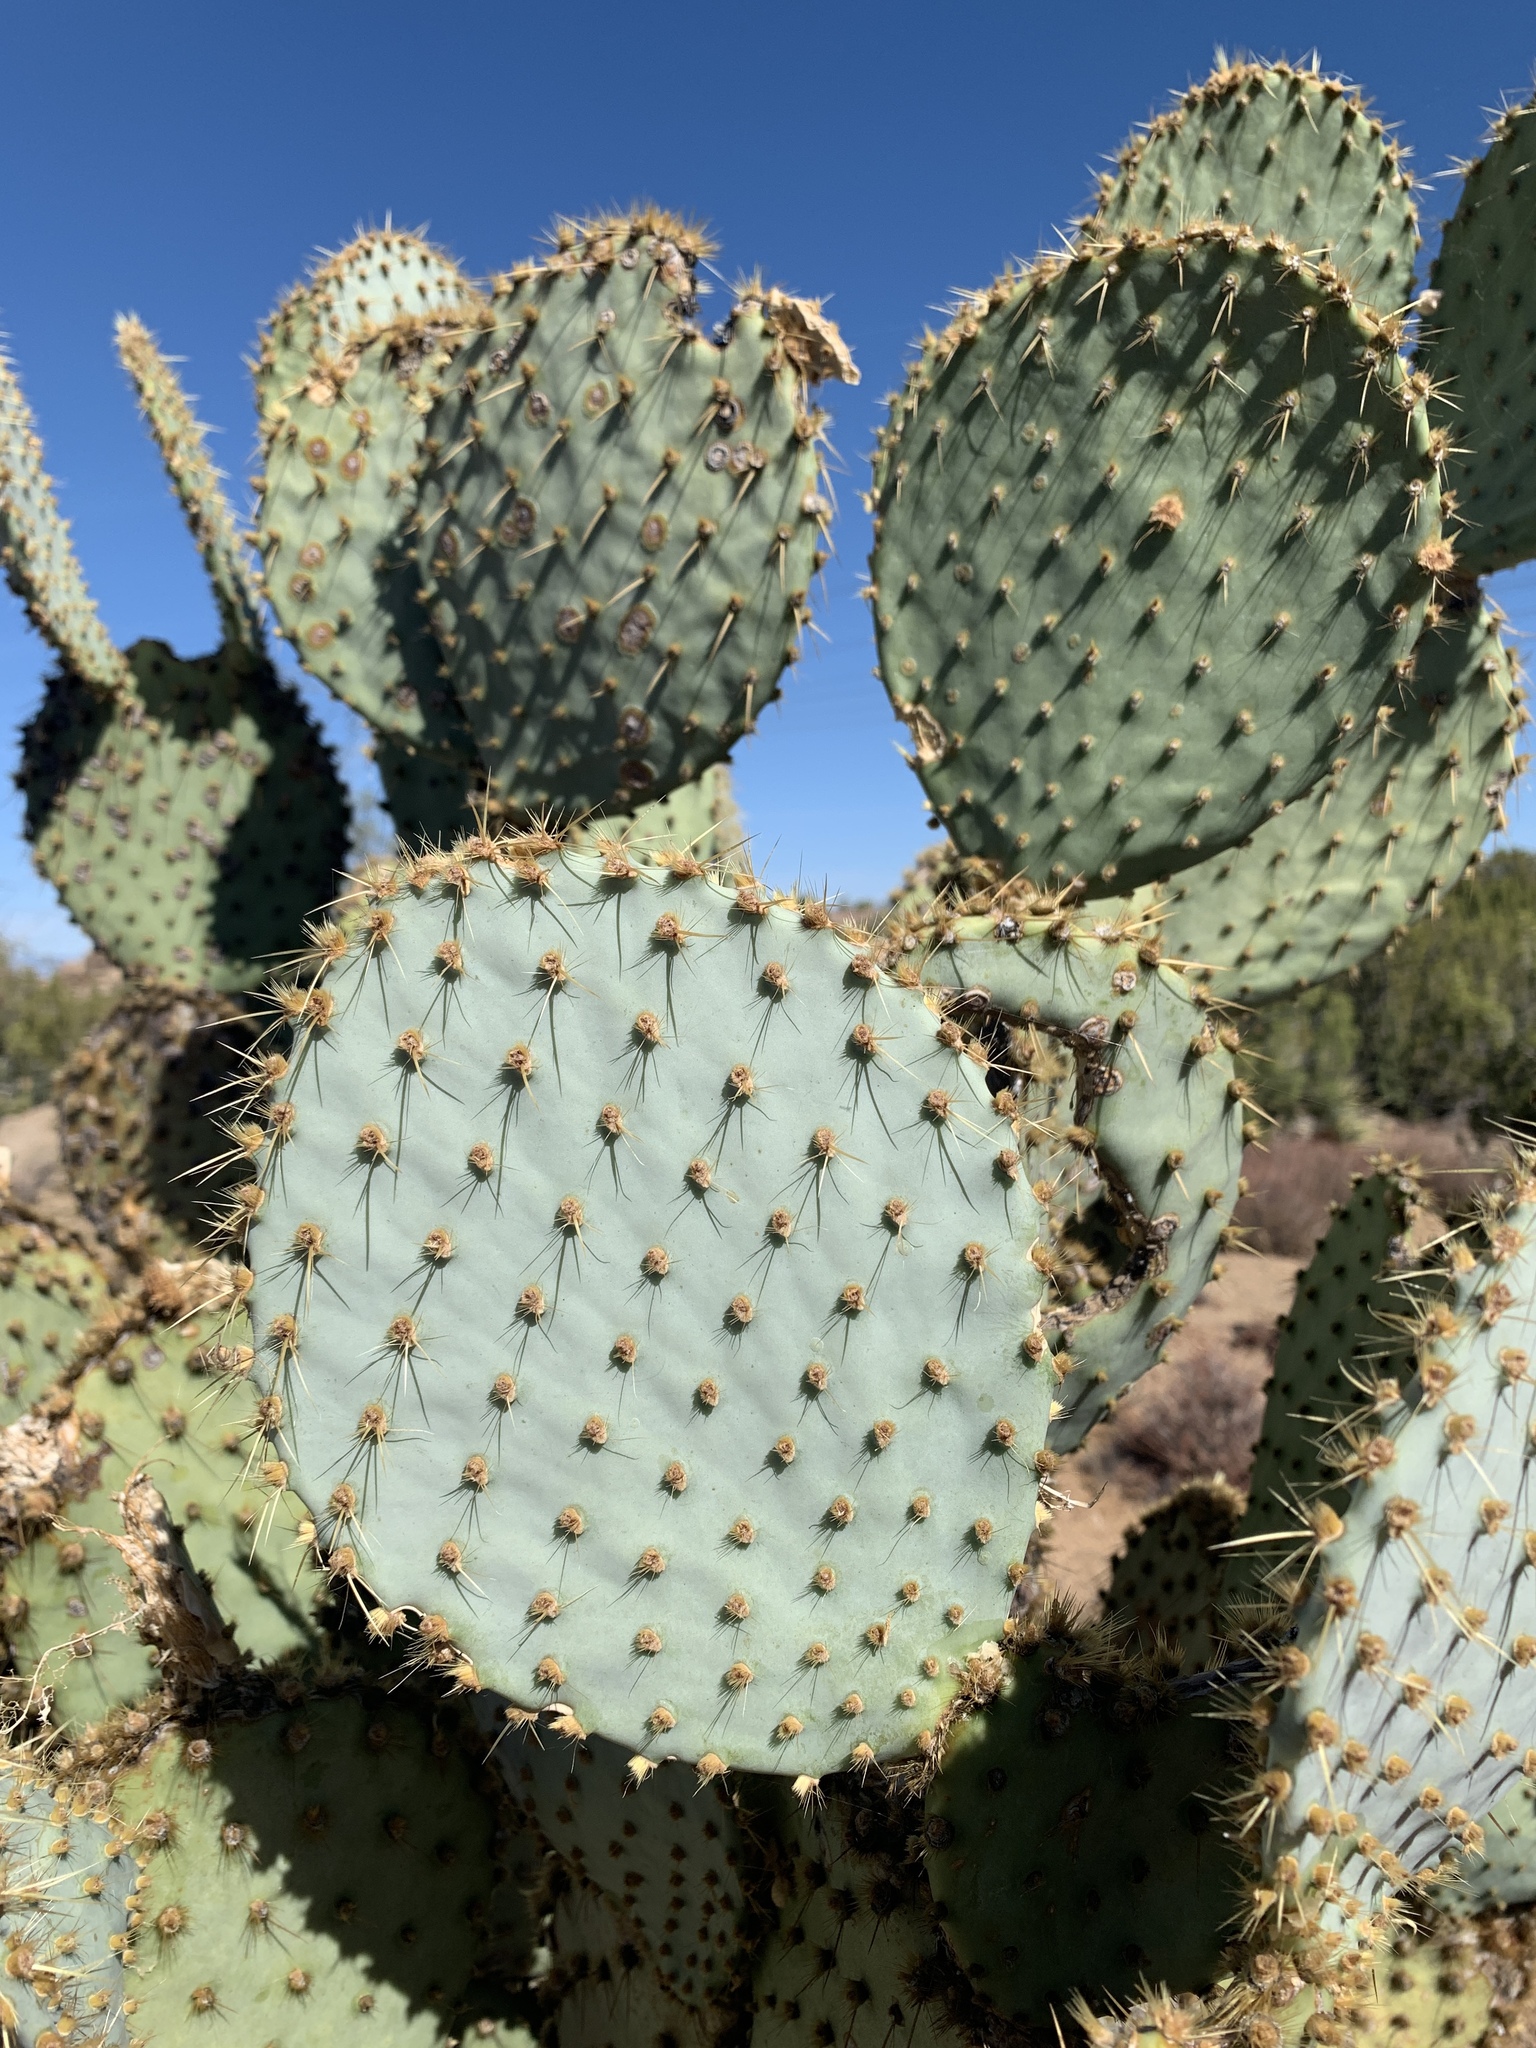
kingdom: Plantae
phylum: Tracheophyta
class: Magnoliopsida
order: Caryophyllales
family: Cactaceae
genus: Opuntia
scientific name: Opuntia chlorotica
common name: Dollar-joint prickly-pear
